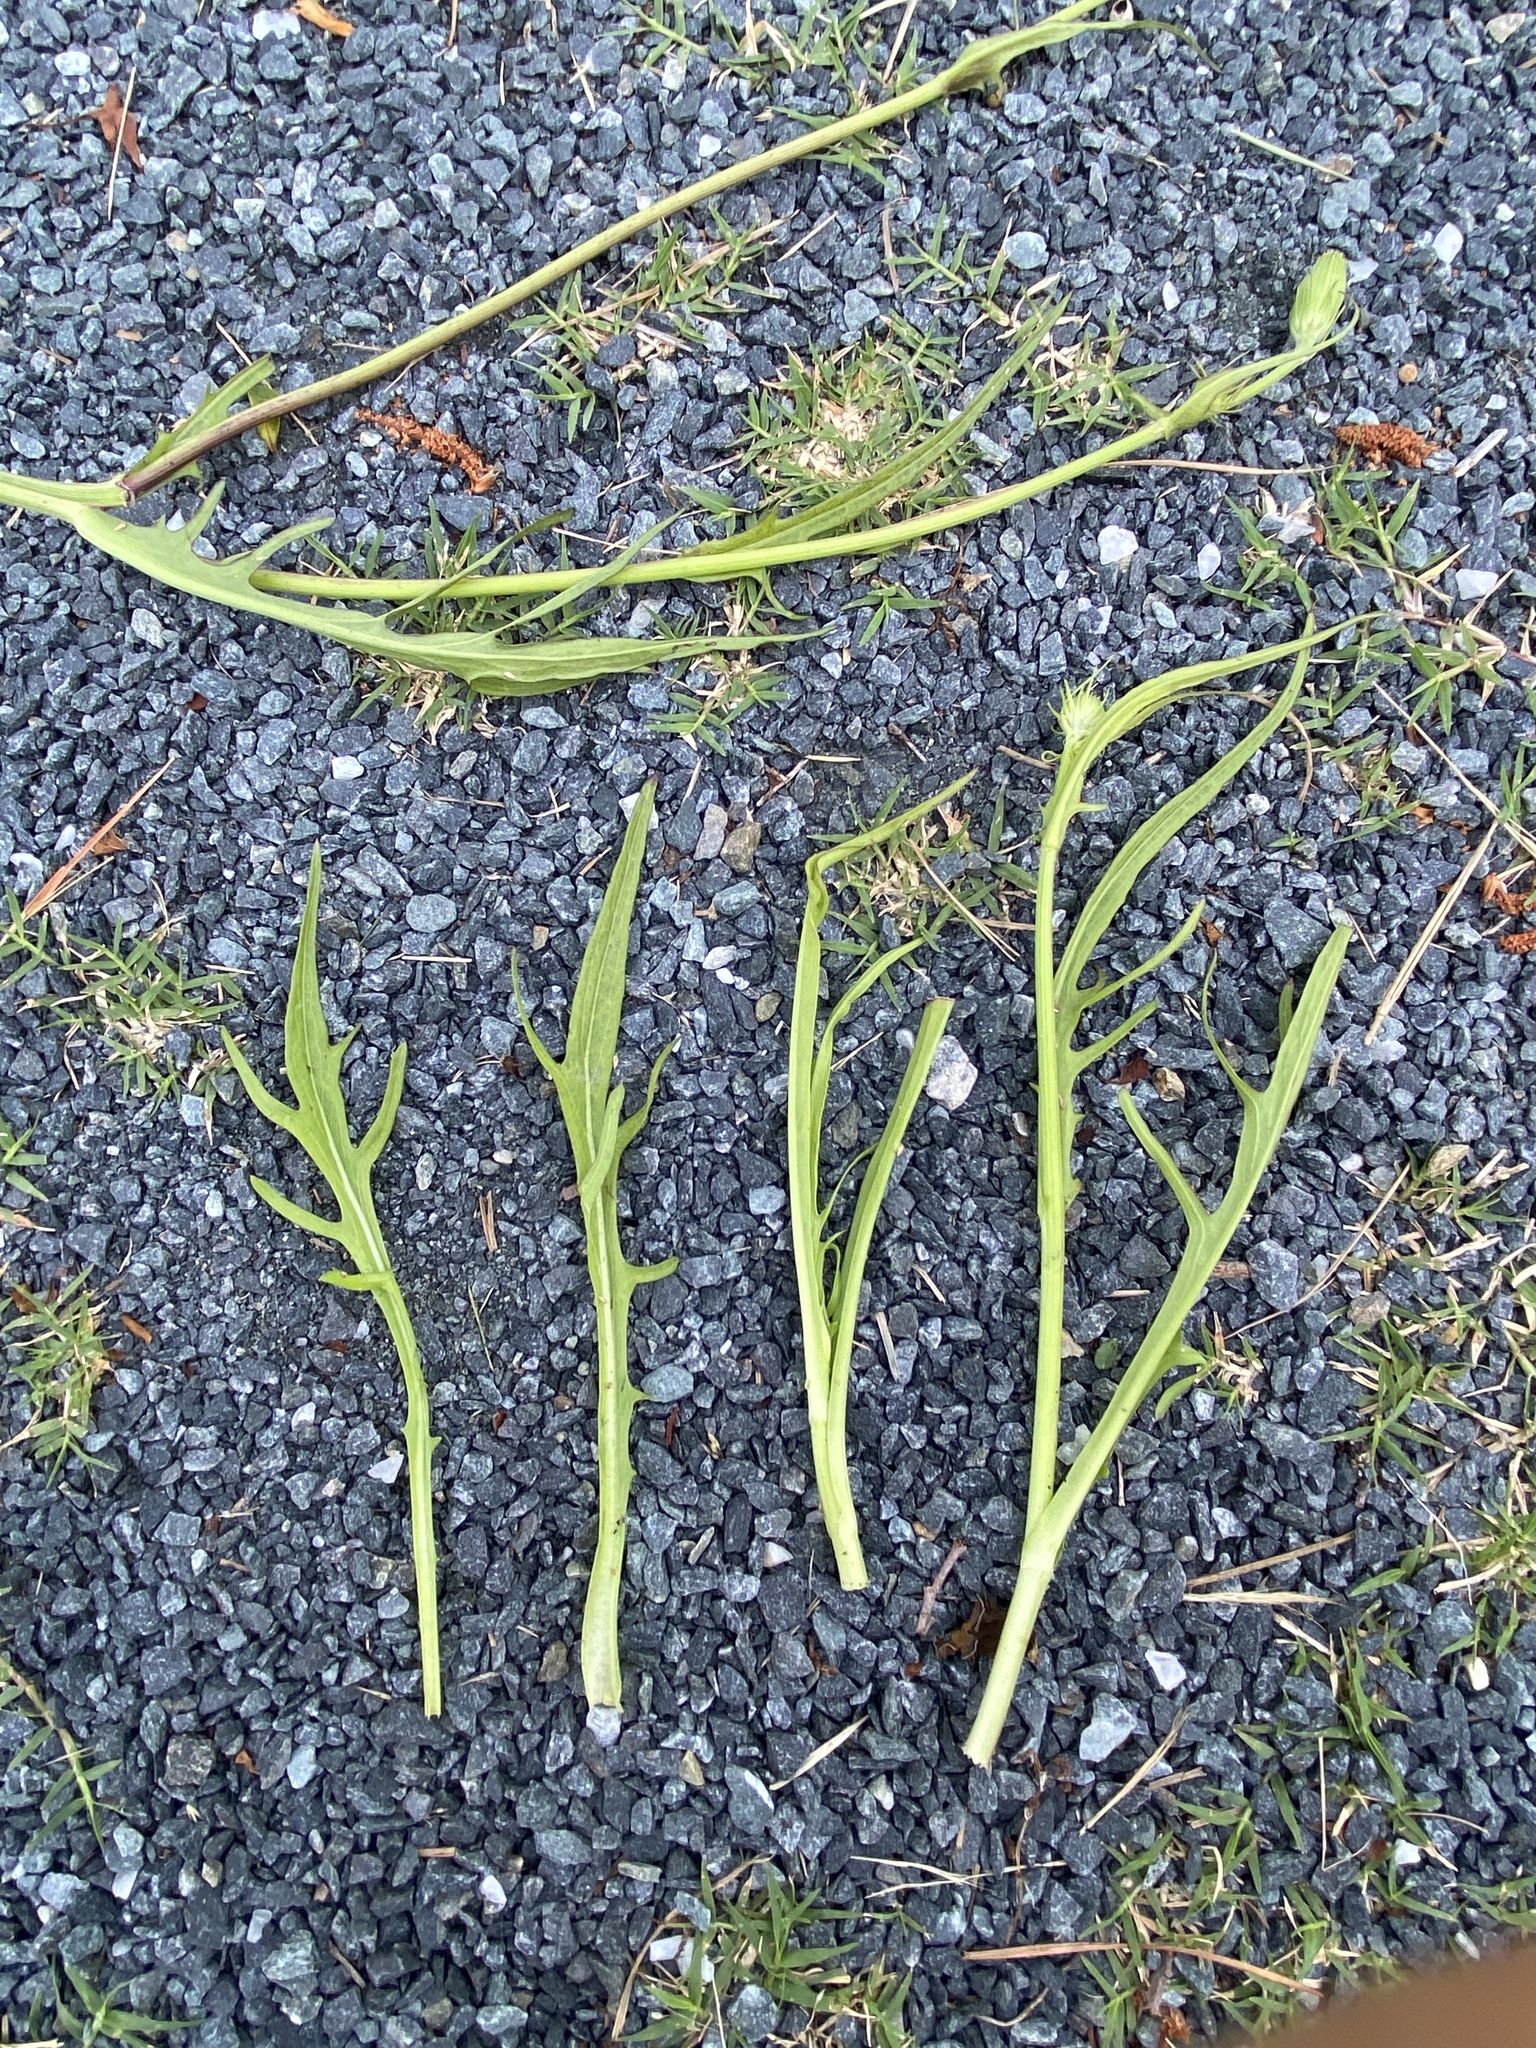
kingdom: Plantae
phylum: Tracheophyta
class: Magnoliopsida
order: Asterales
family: Asteraceae
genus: Pyrrhopappus
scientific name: Pyrrhopappus carolinianus
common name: Carolina desert-chicory
